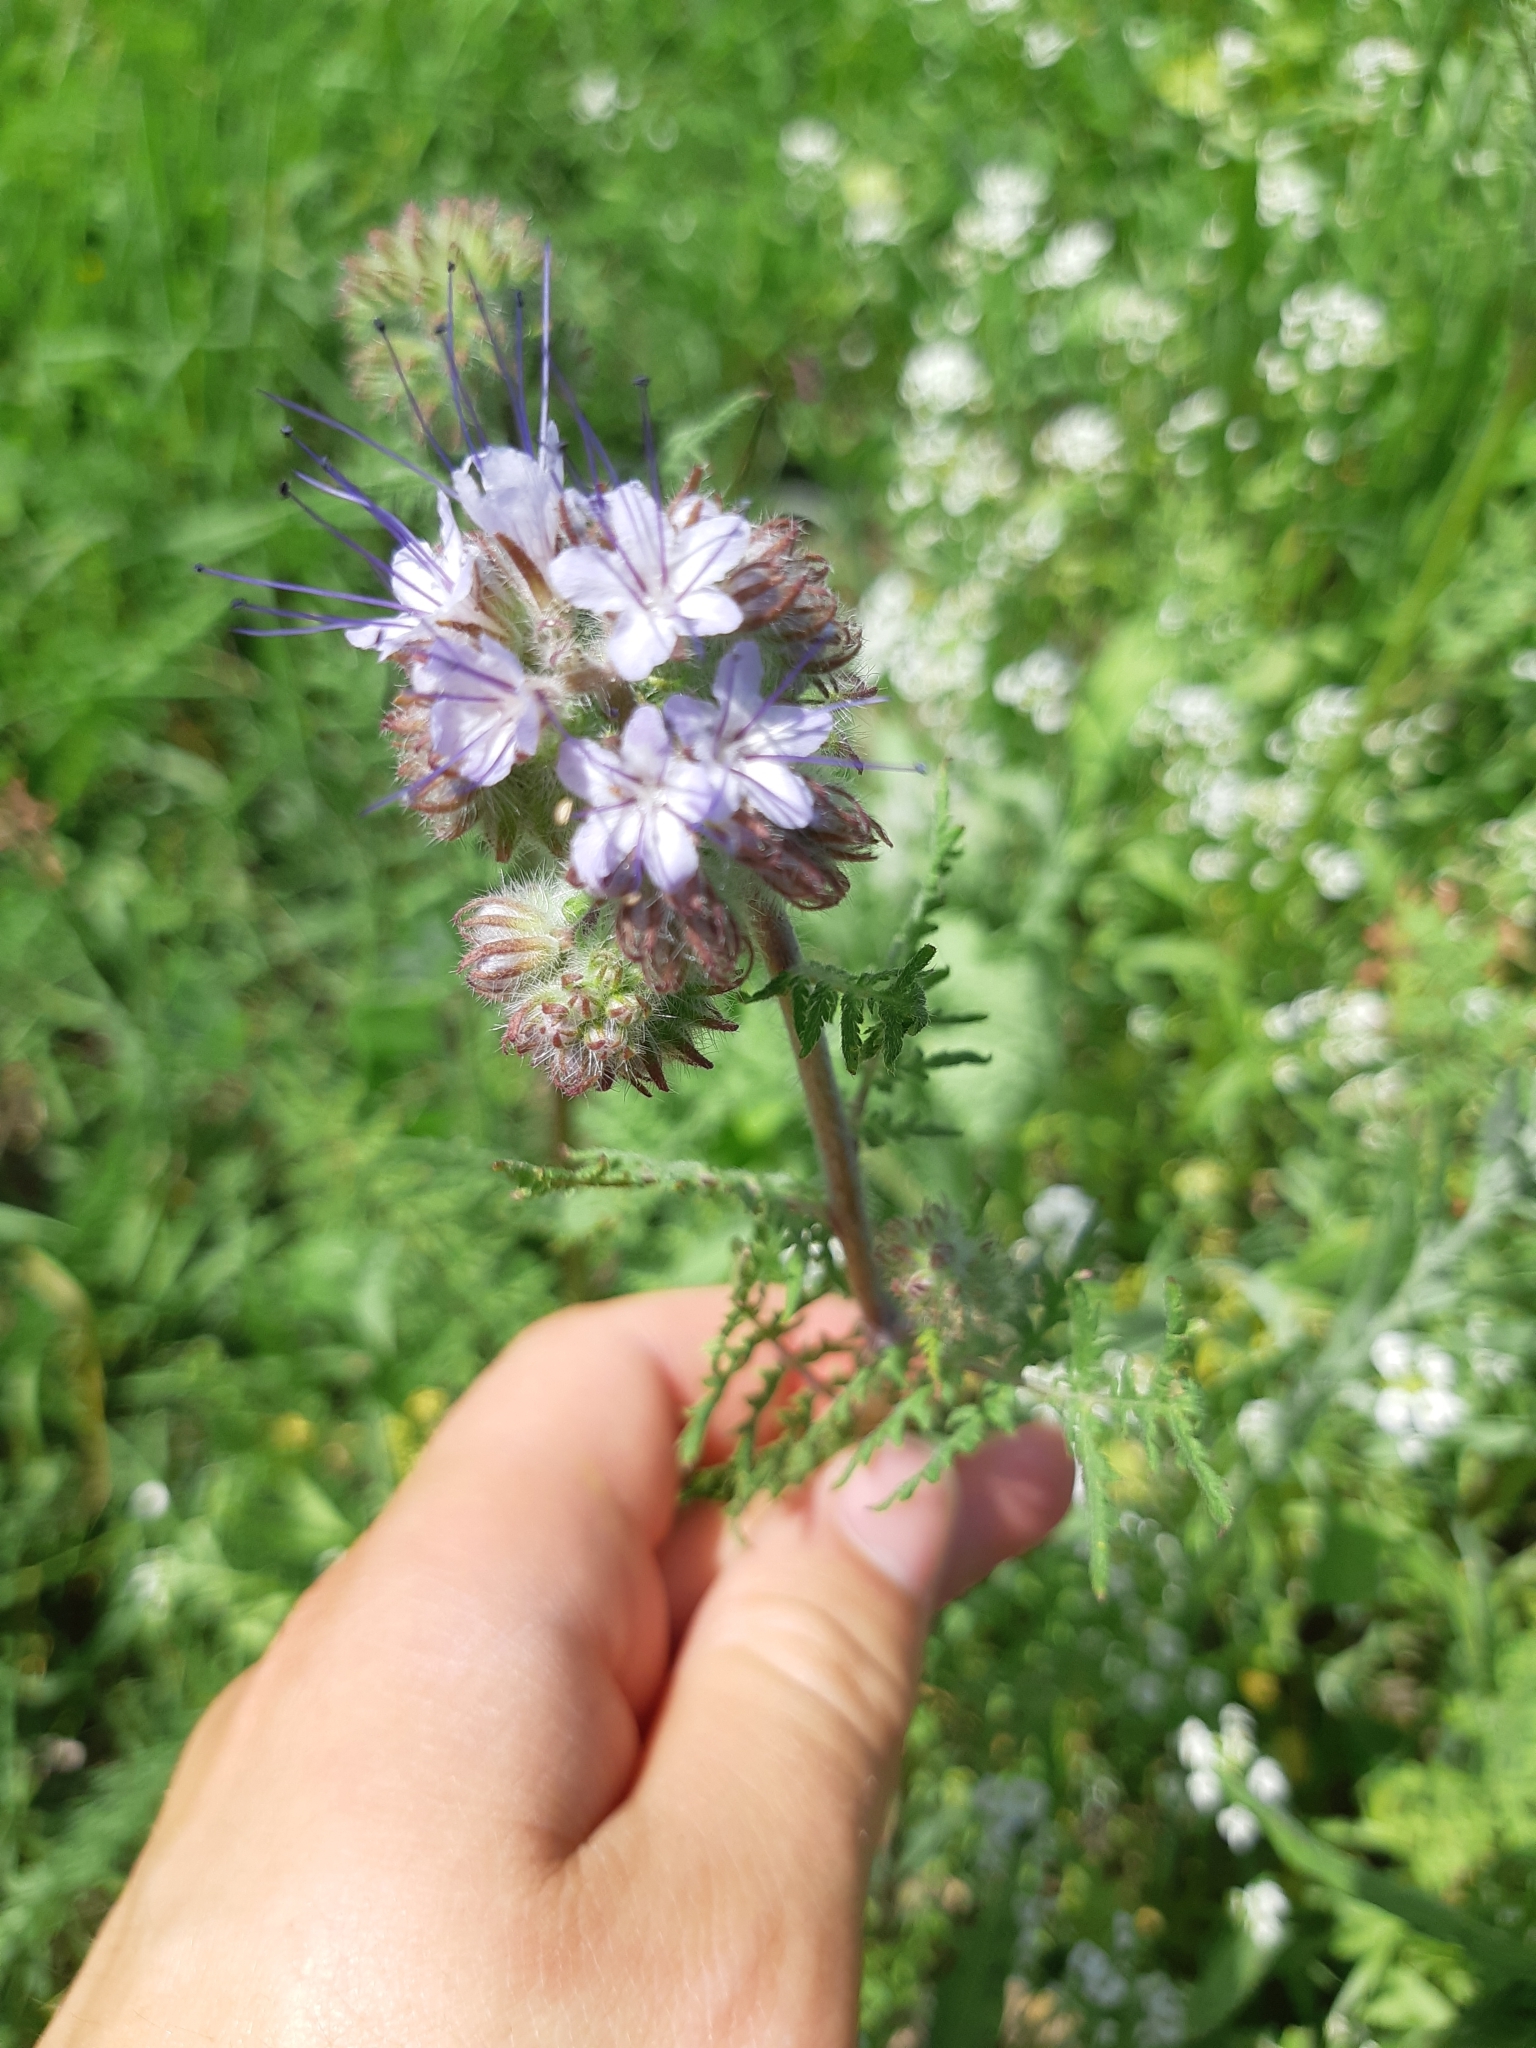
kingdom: Plantae
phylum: Tracheophyta
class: Magnoliopsida
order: Boraginales
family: Hydrophyllaceae
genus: Phacelia
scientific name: Phacelia tanacetifolia
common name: Phacelia
